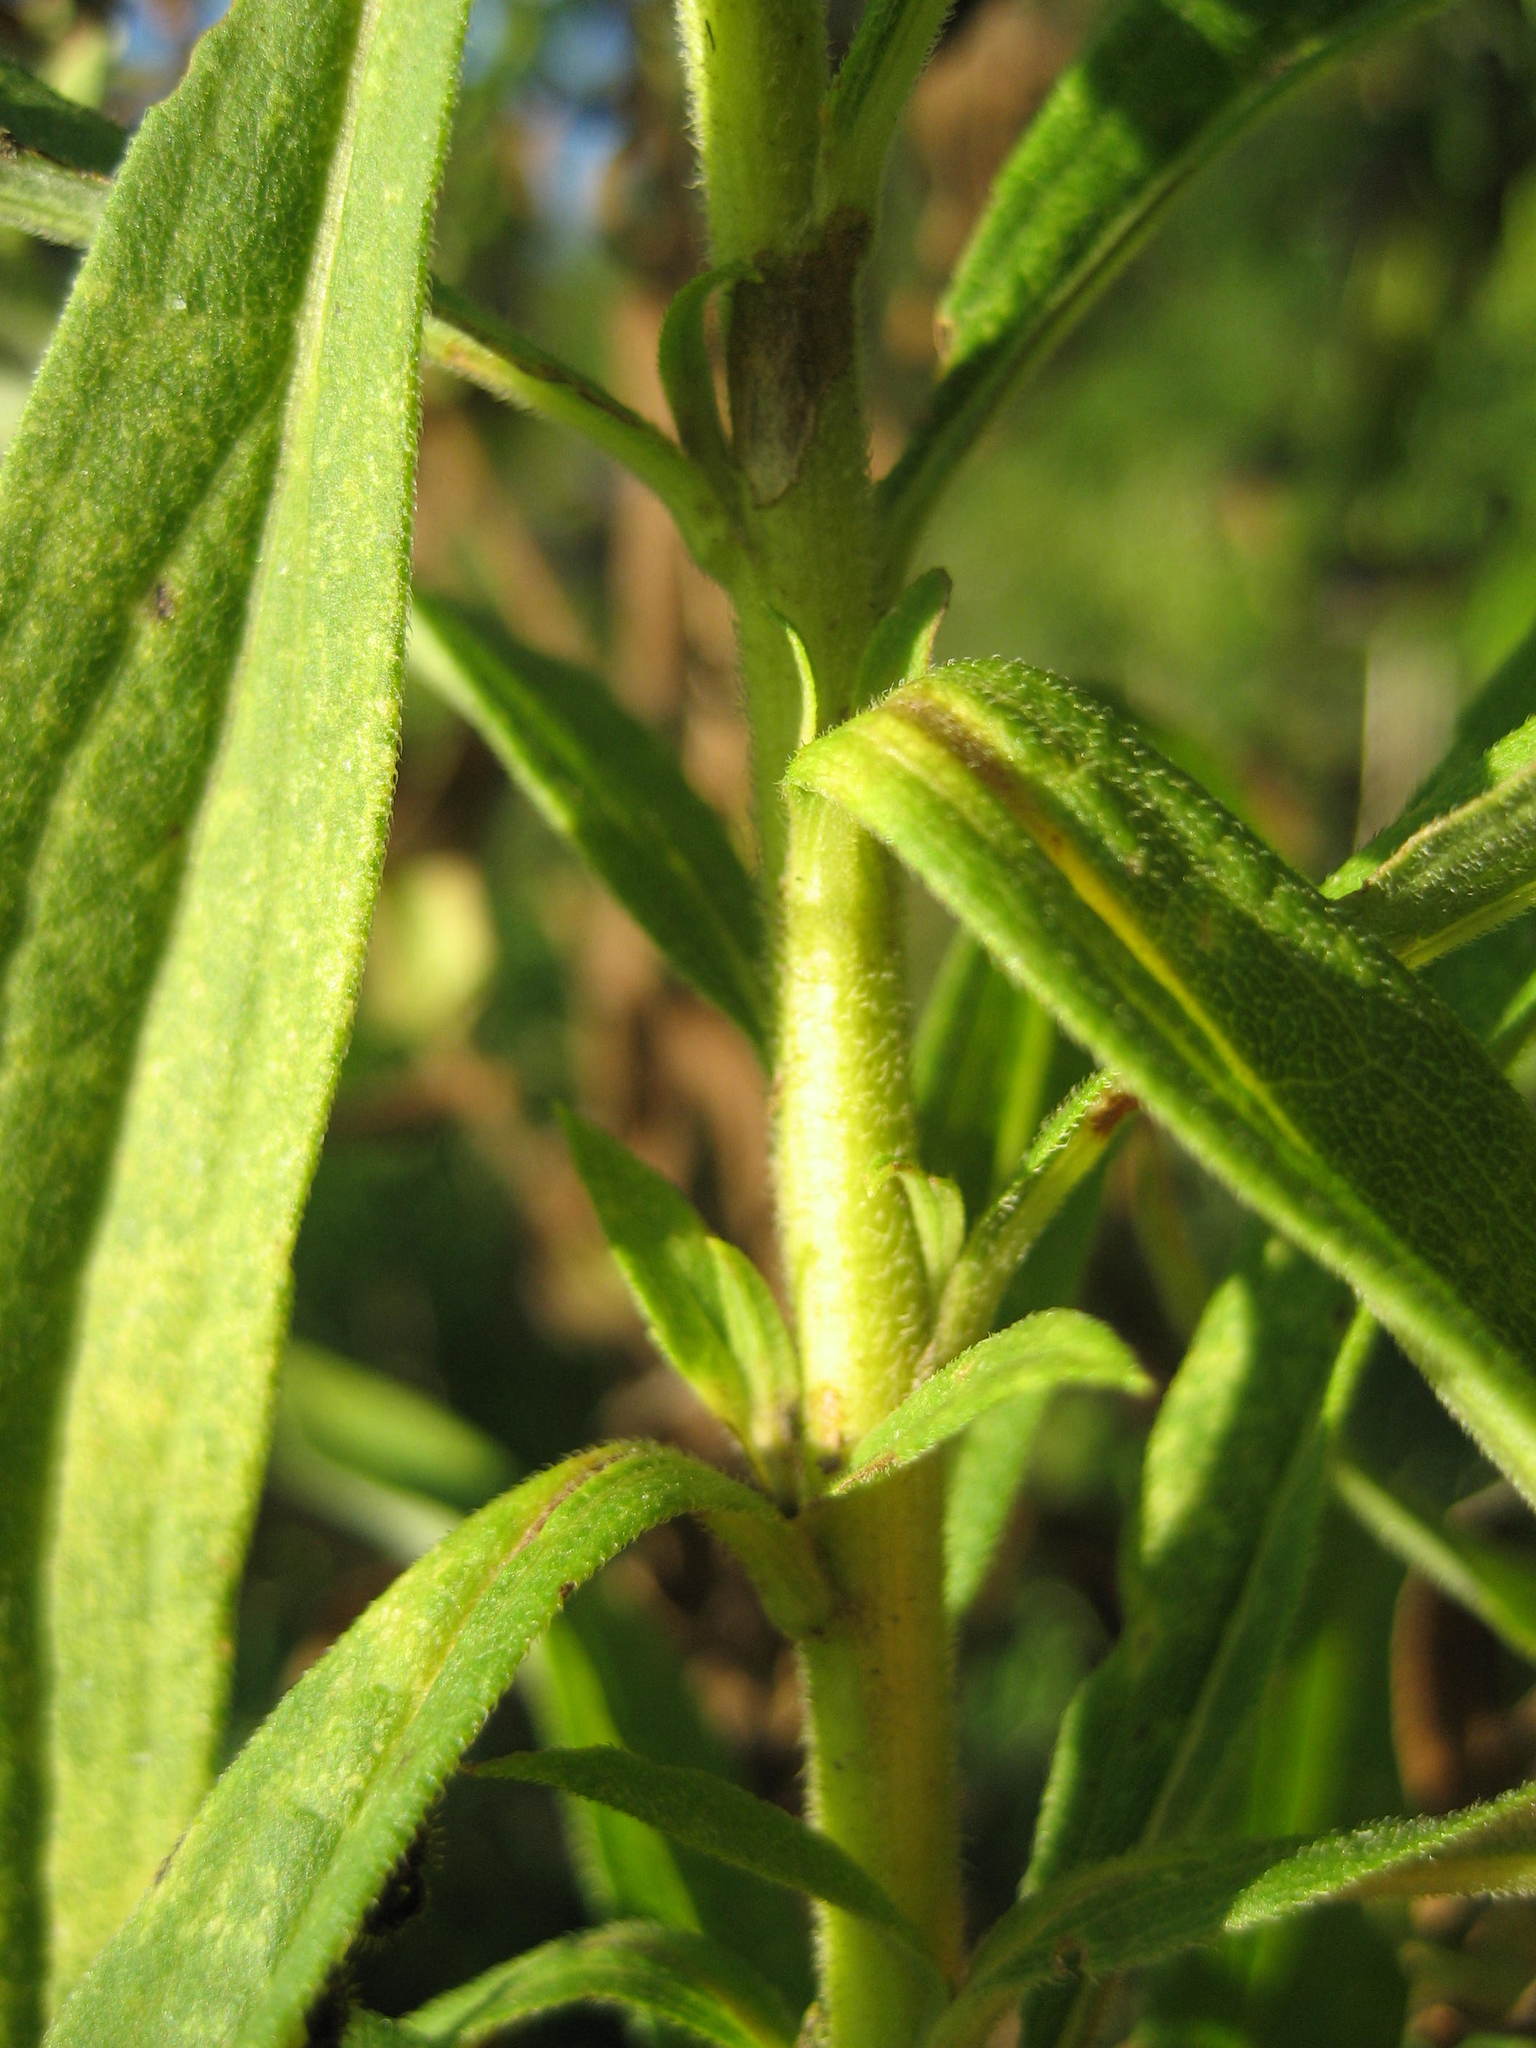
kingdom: Plantae
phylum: Tracheophyta
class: Magnoliopsida
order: Asterales
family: Asteraceae
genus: Solidago
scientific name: Solidago altissima
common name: Late goldenrod
